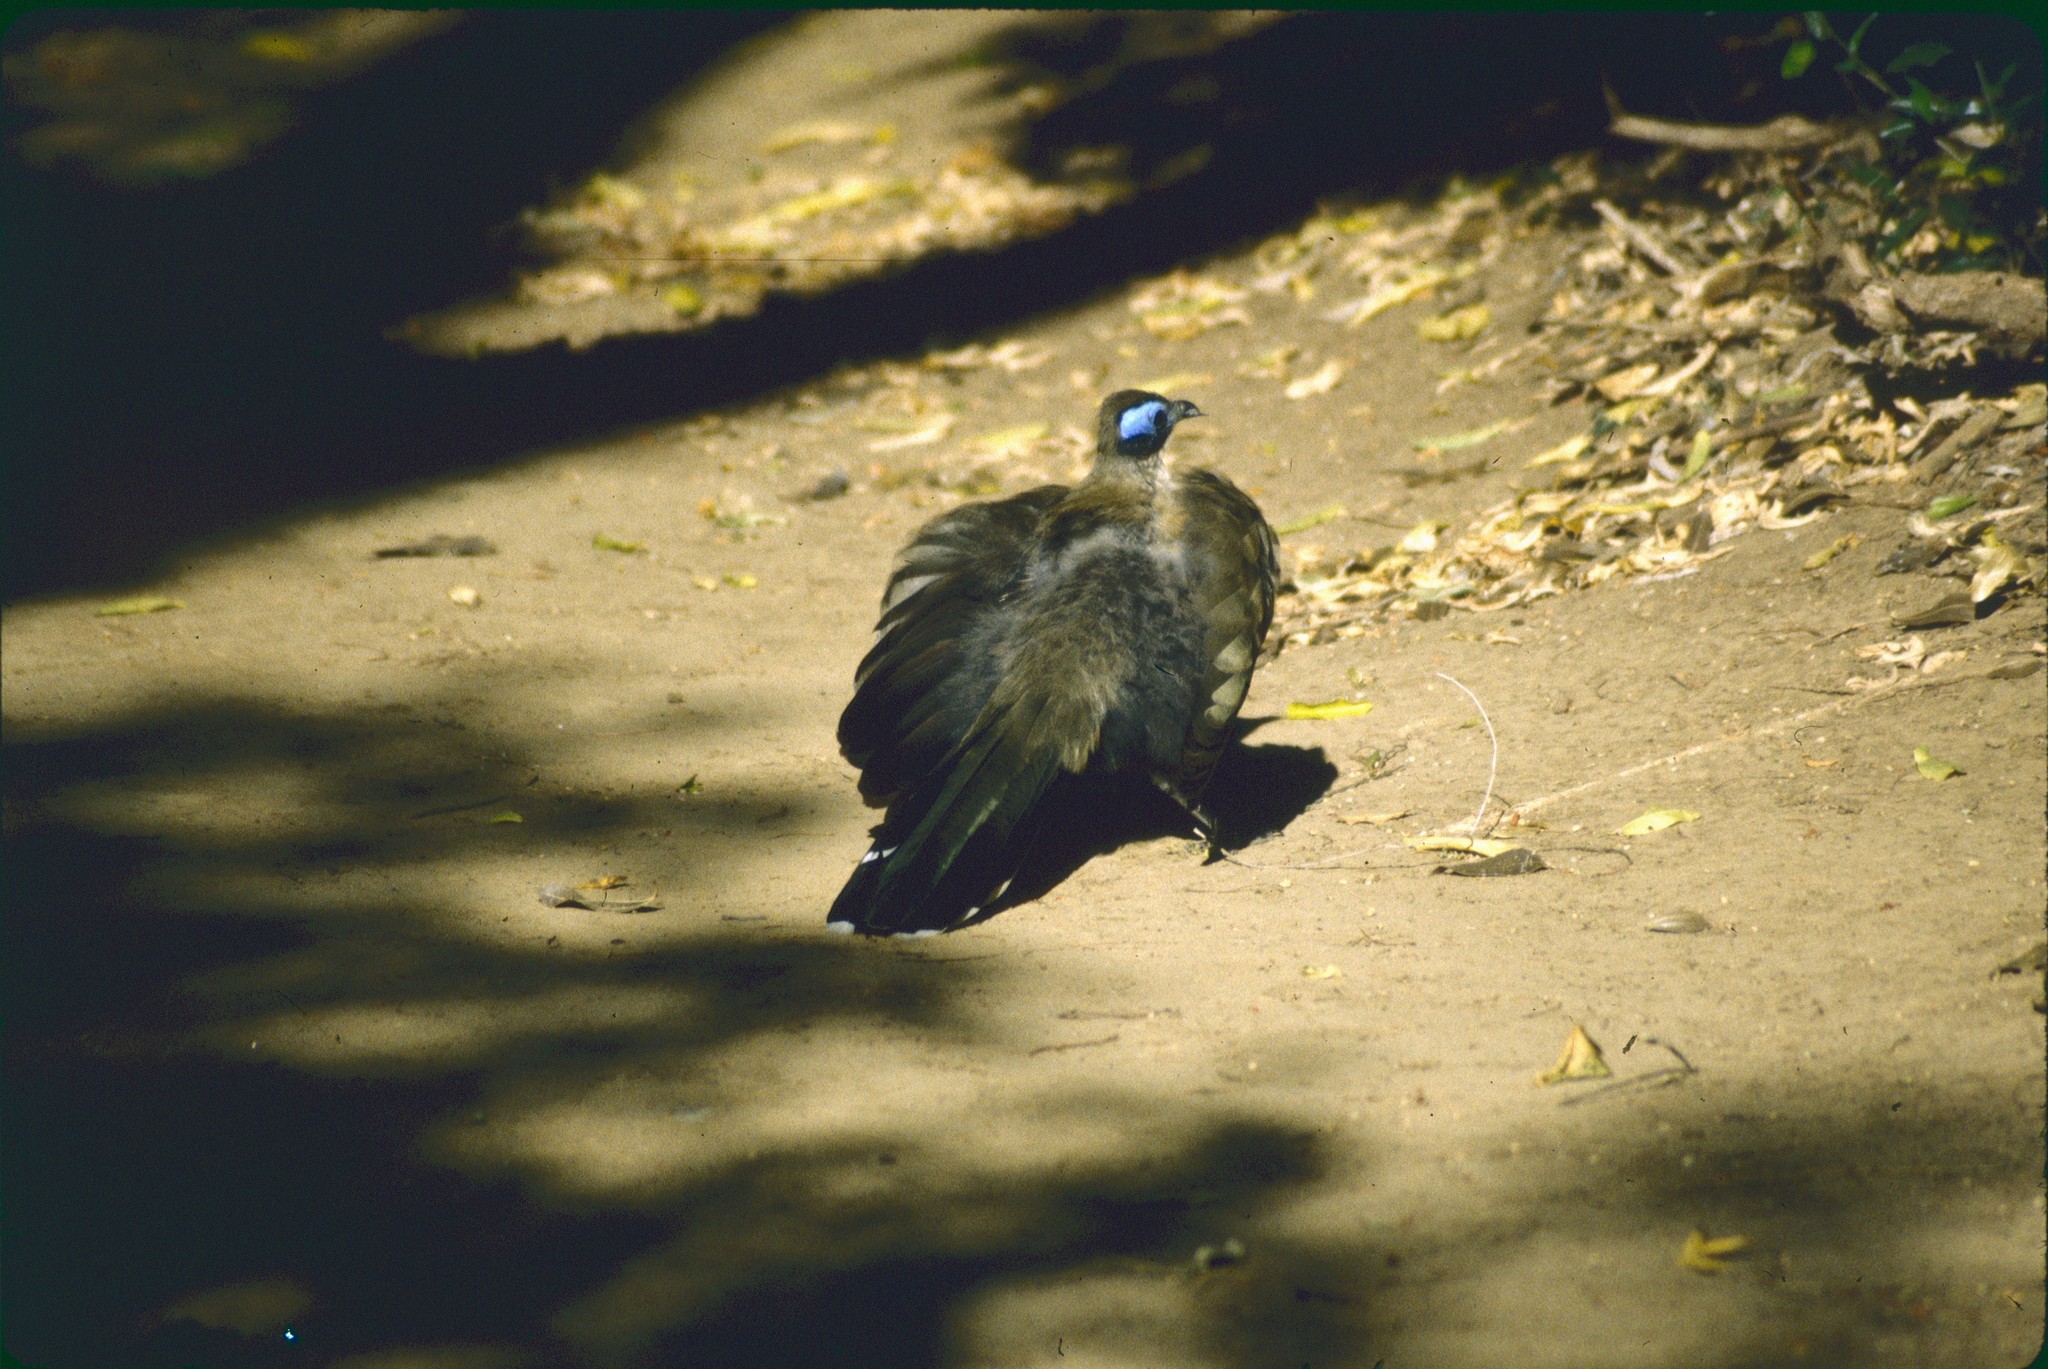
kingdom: Animalia
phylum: Chordata
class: Aves
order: Cuculiformes
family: Cuculidae
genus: Coua
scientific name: Coua gigas
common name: Giant coua
